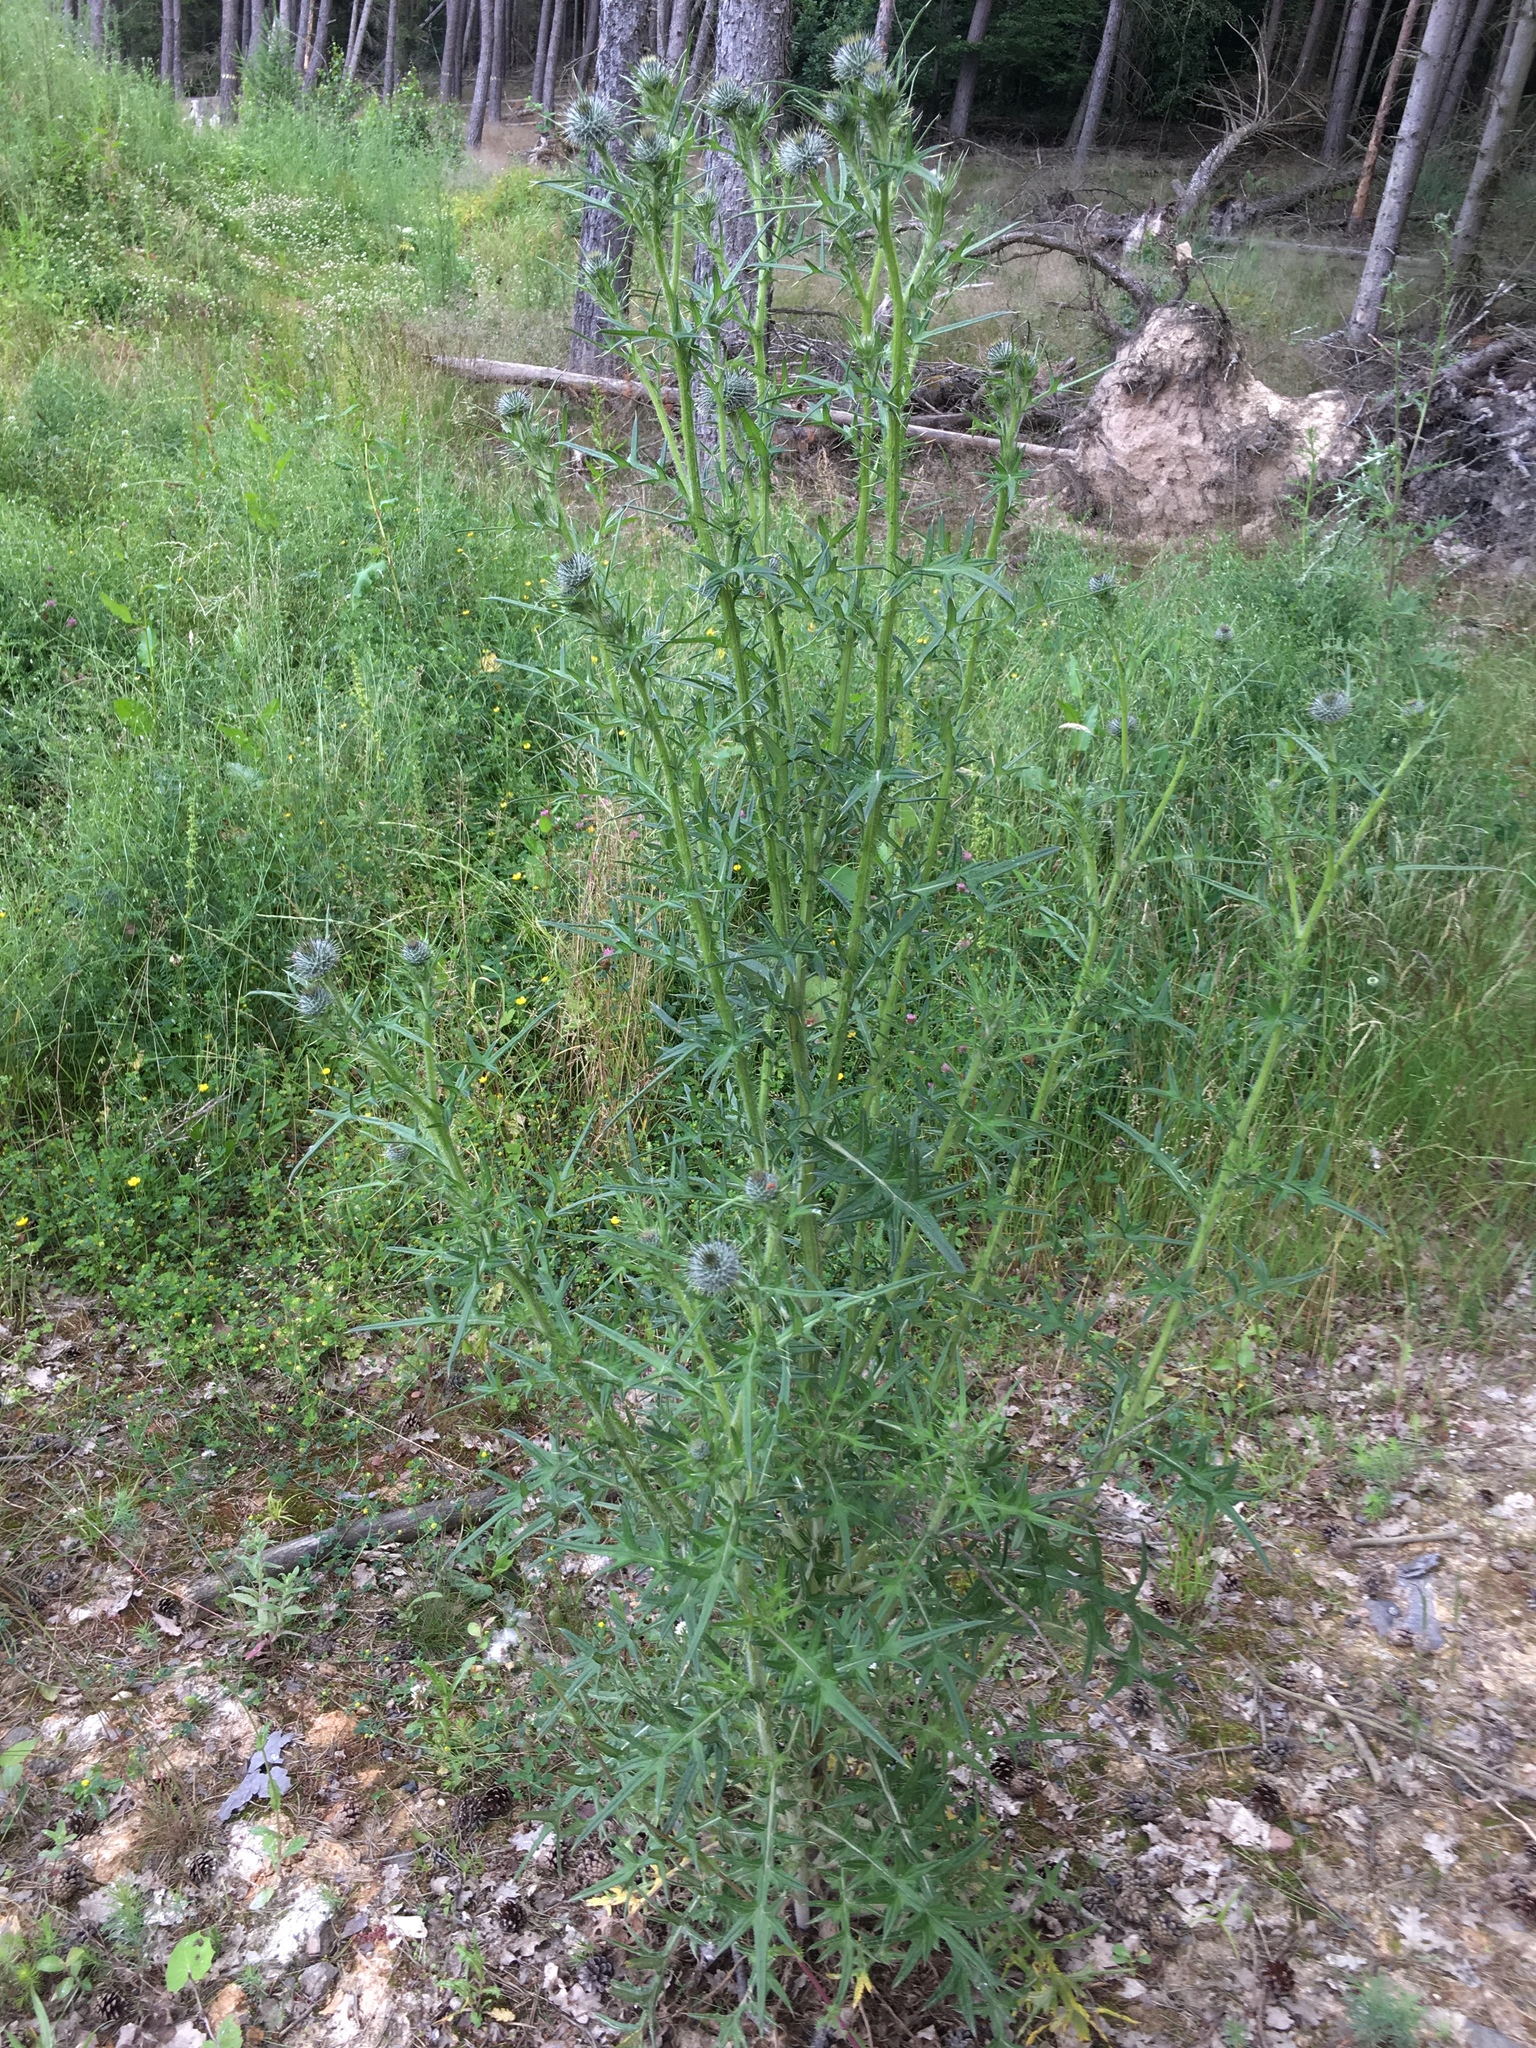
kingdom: Plantae
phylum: Tracheophyta
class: Magnoliopsida
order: Asterales
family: Asteraceae
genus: Cirsium
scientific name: Cirsium vulgare
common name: Bull thistle
